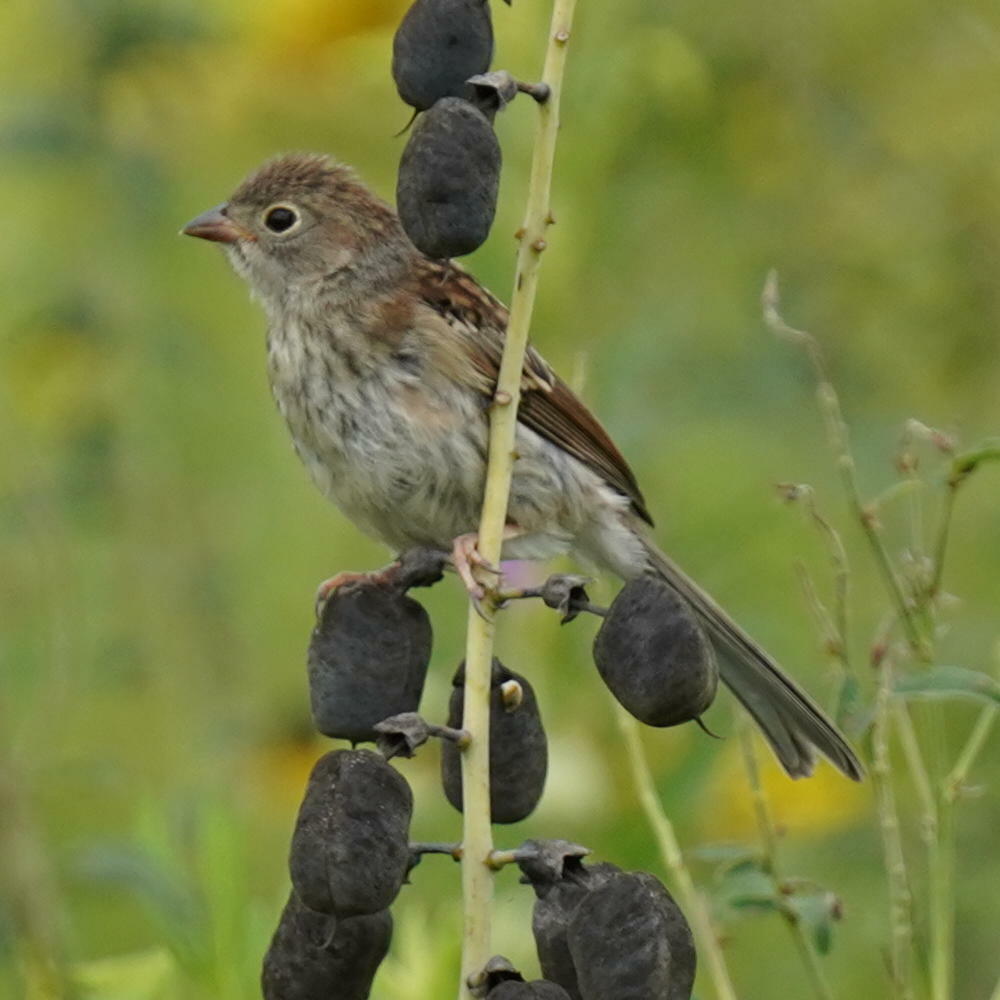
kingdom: Animalia
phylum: Chordata
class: Aves
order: Passeriformes
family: Passerellidae
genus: Spizella
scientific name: Spizella pusilla
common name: Field sparrow
